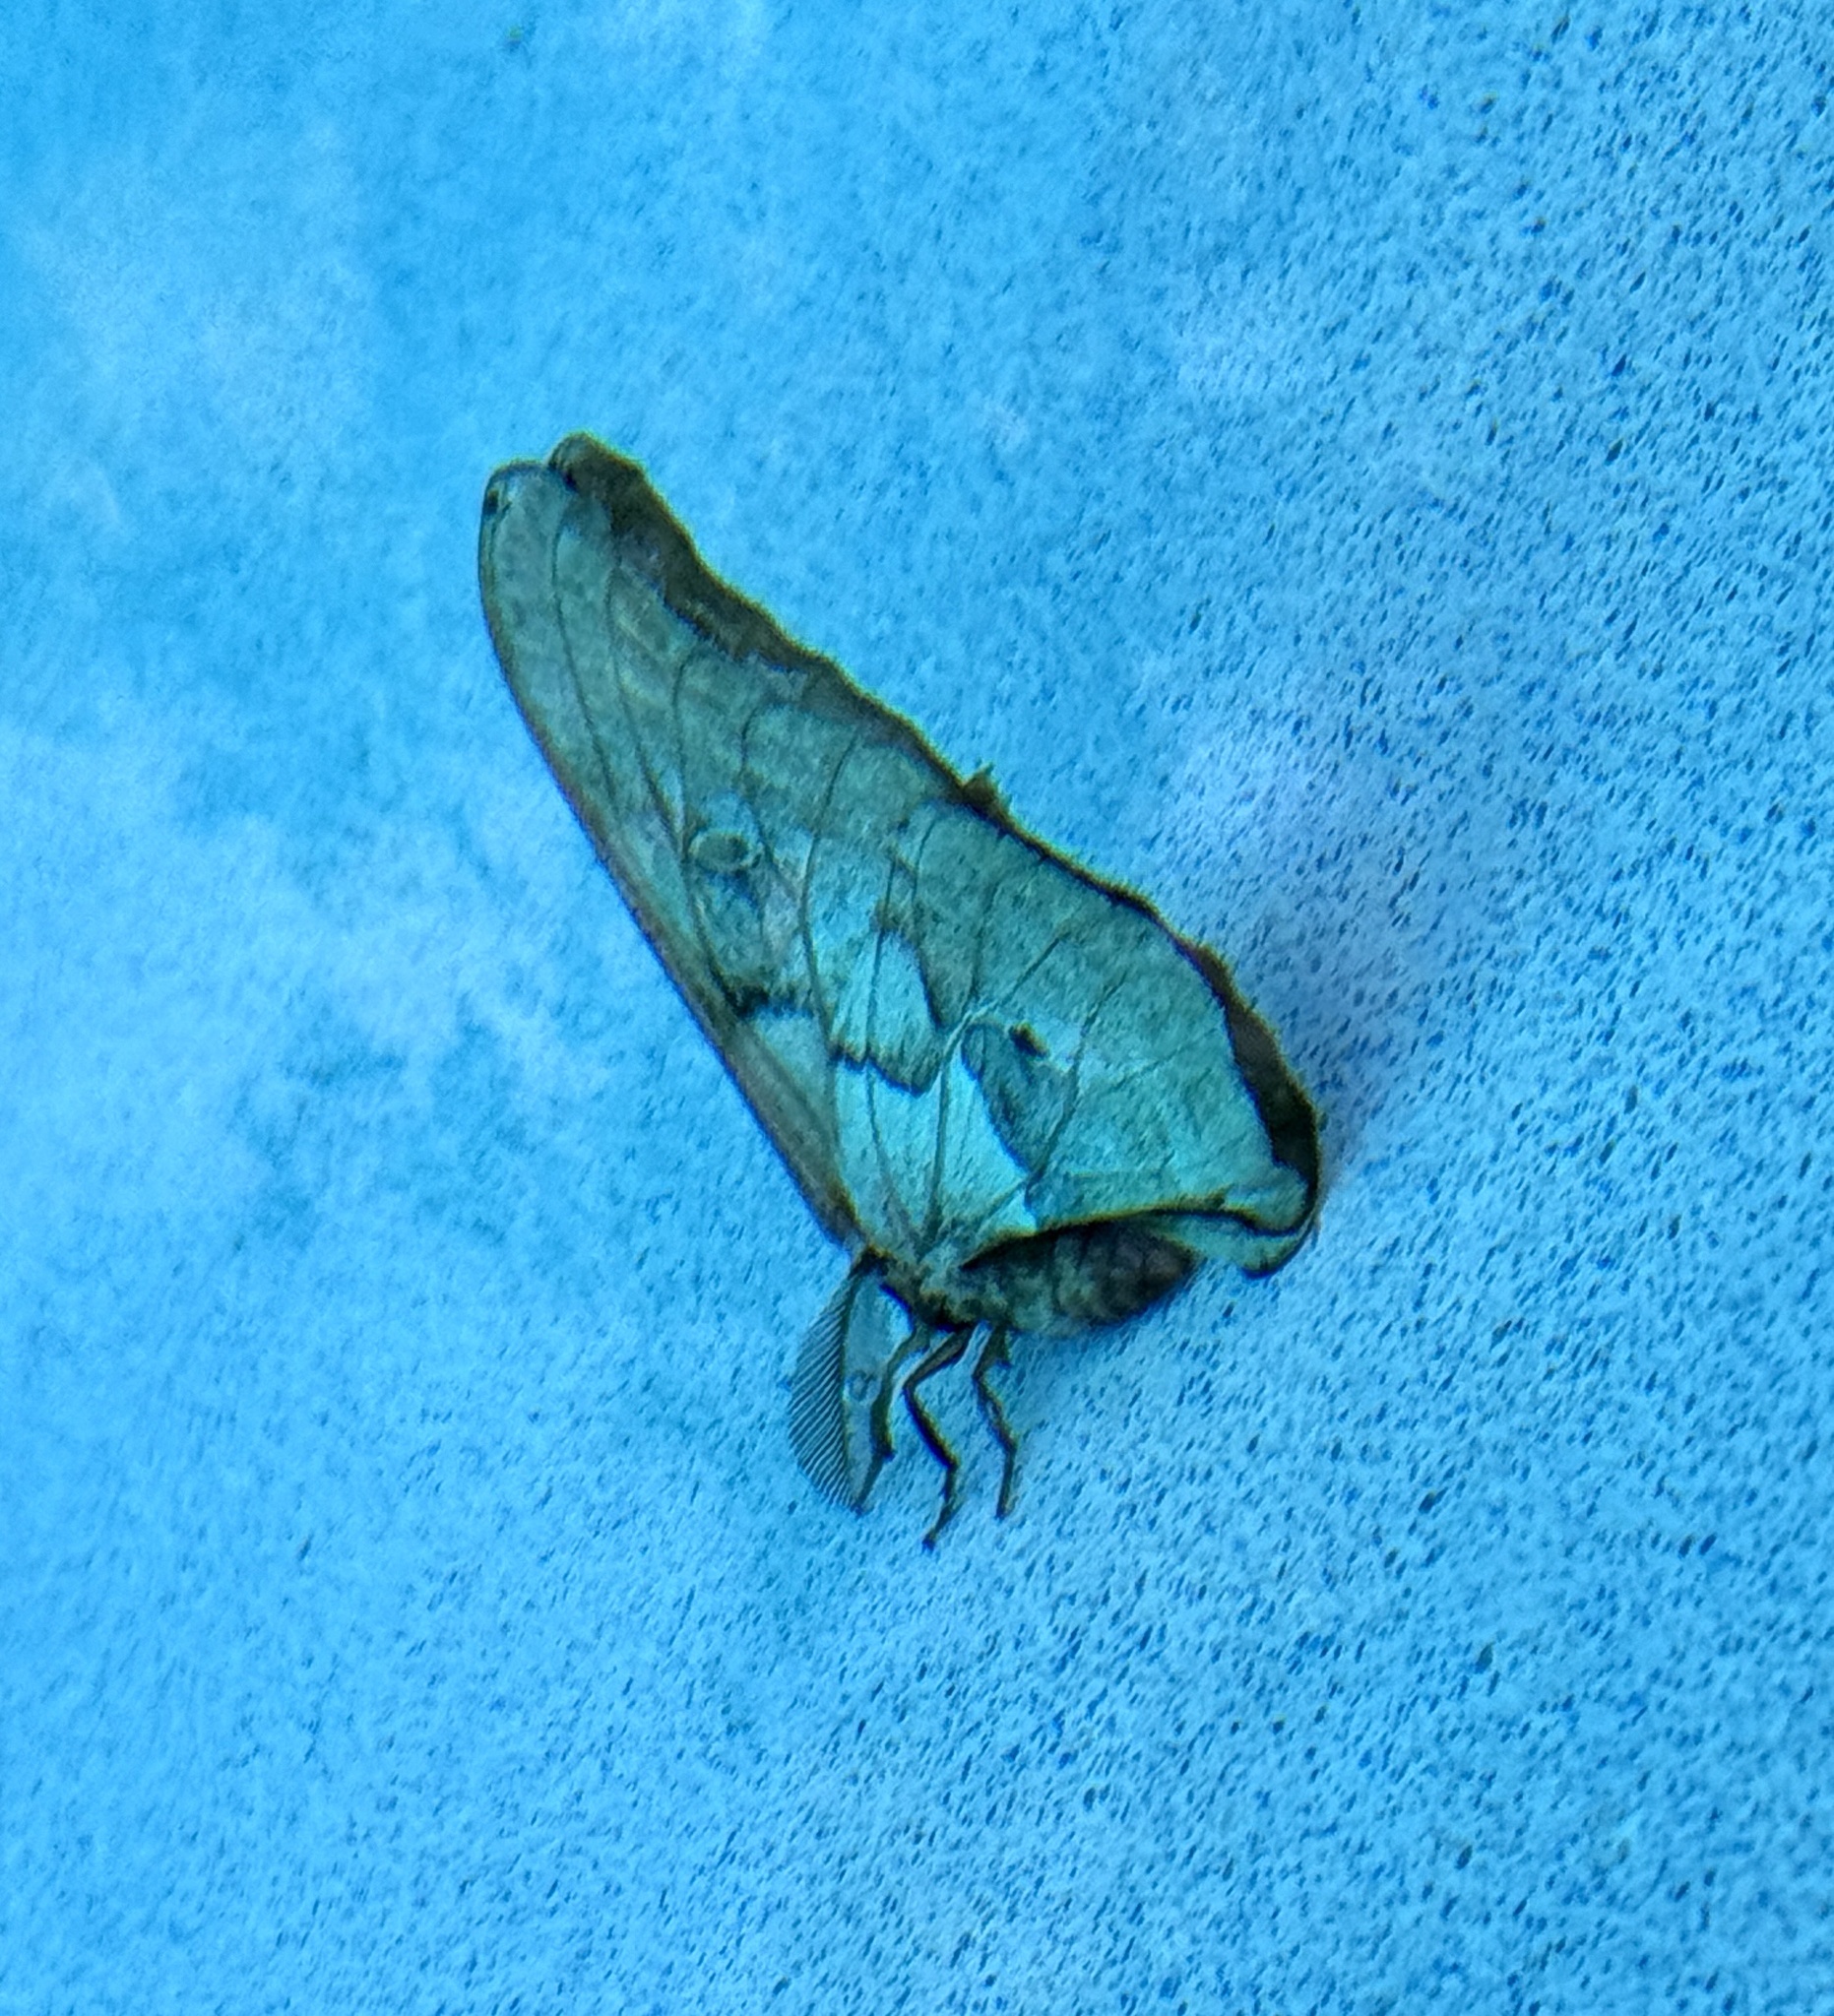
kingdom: Animalia
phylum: Arthropoda
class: Insecta
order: Lepidoptera
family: Saturniidae
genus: Antheraea
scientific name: Antheraea polyphemus
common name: Polyphemus moth
